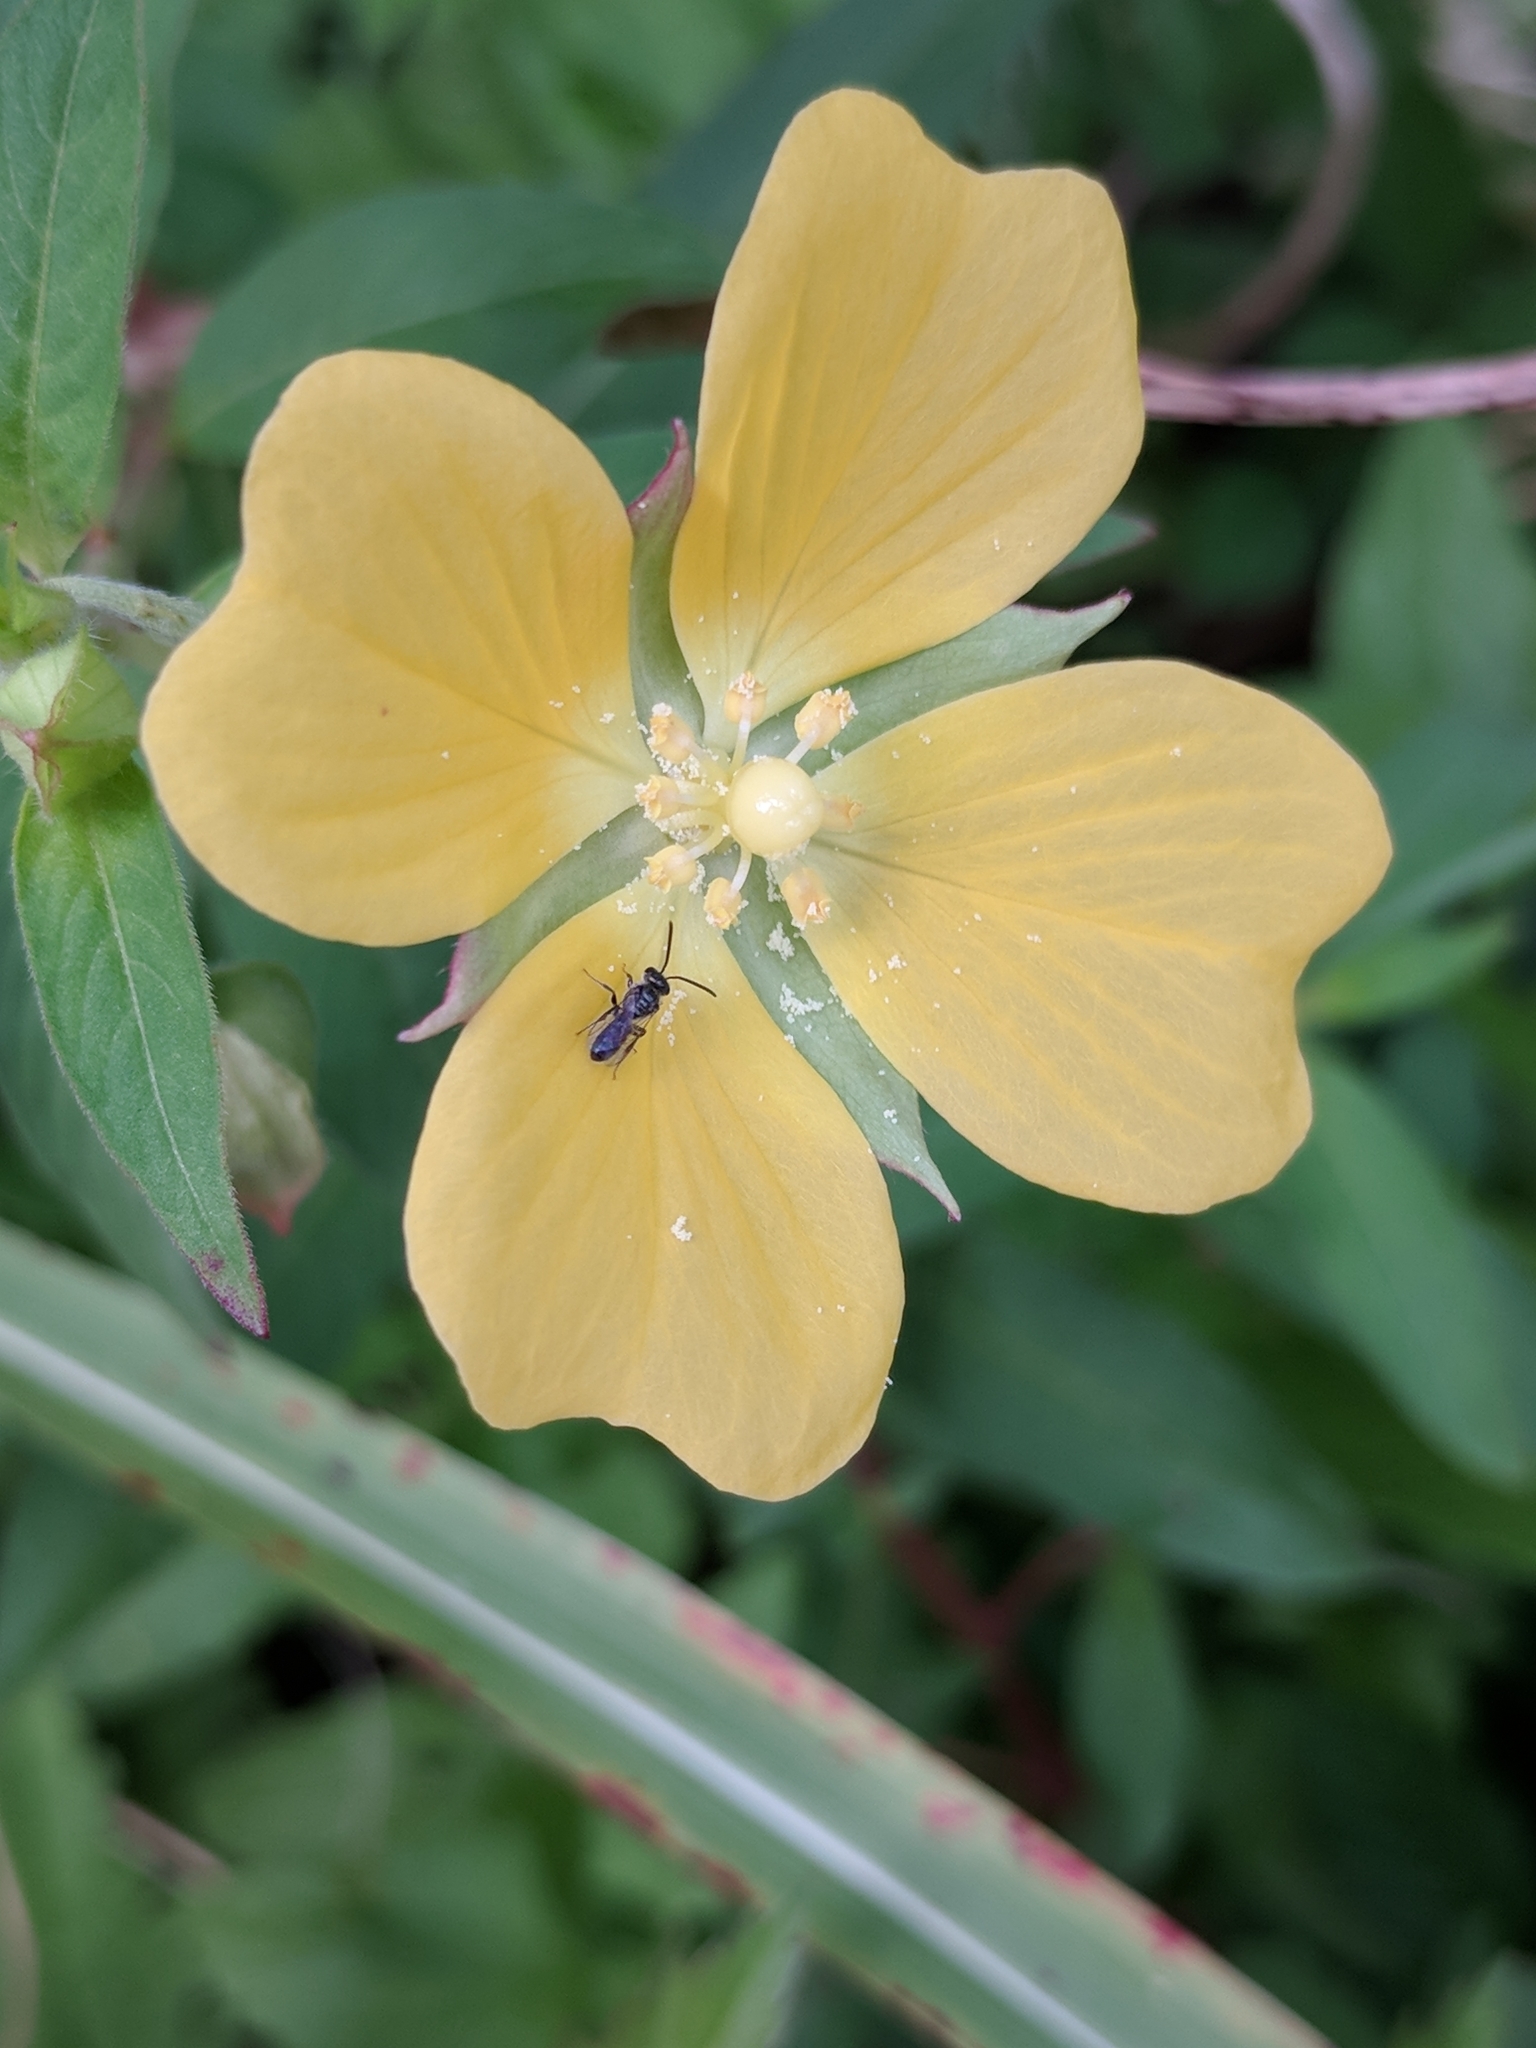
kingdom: Plantae
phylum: Tracheophyta
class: Magnoliopsida
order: Myrtales
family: Onagraceae
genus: Ludwigia
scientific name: Ludwigia octovalvis
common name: Water-primrose
